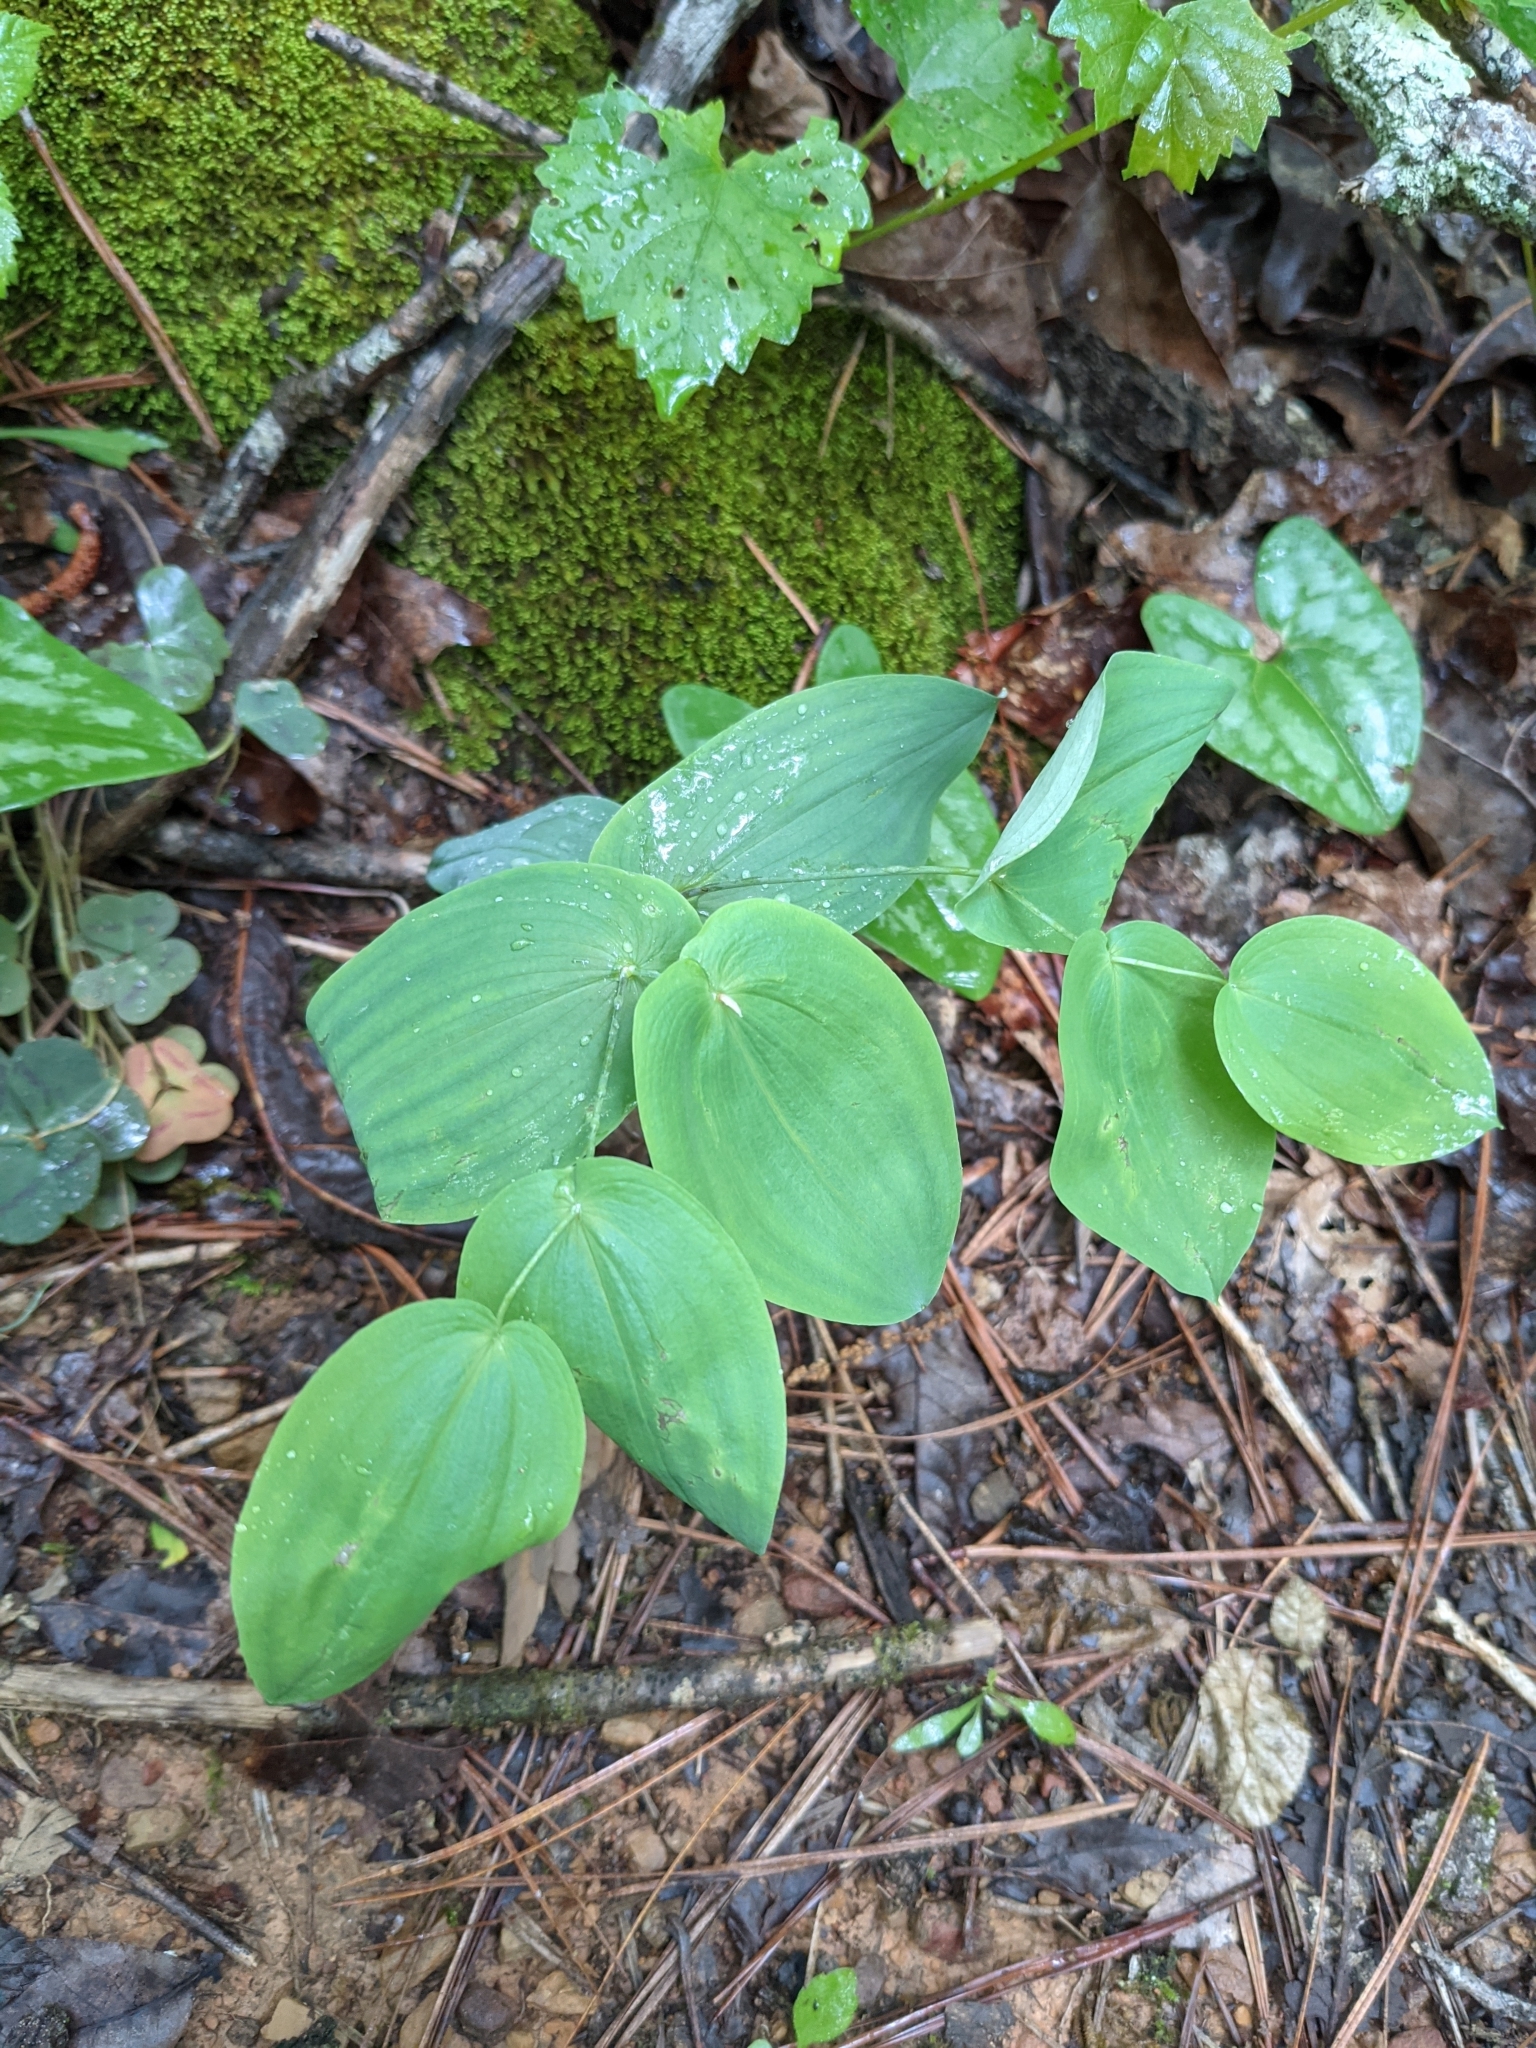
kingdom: Plantae
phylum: Tracheophyta
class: Liliopsida
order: Liliales
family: Colchicaceae
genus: Uvularia
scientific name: Uvularia perfoliata
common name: Perfoliate bellwort
